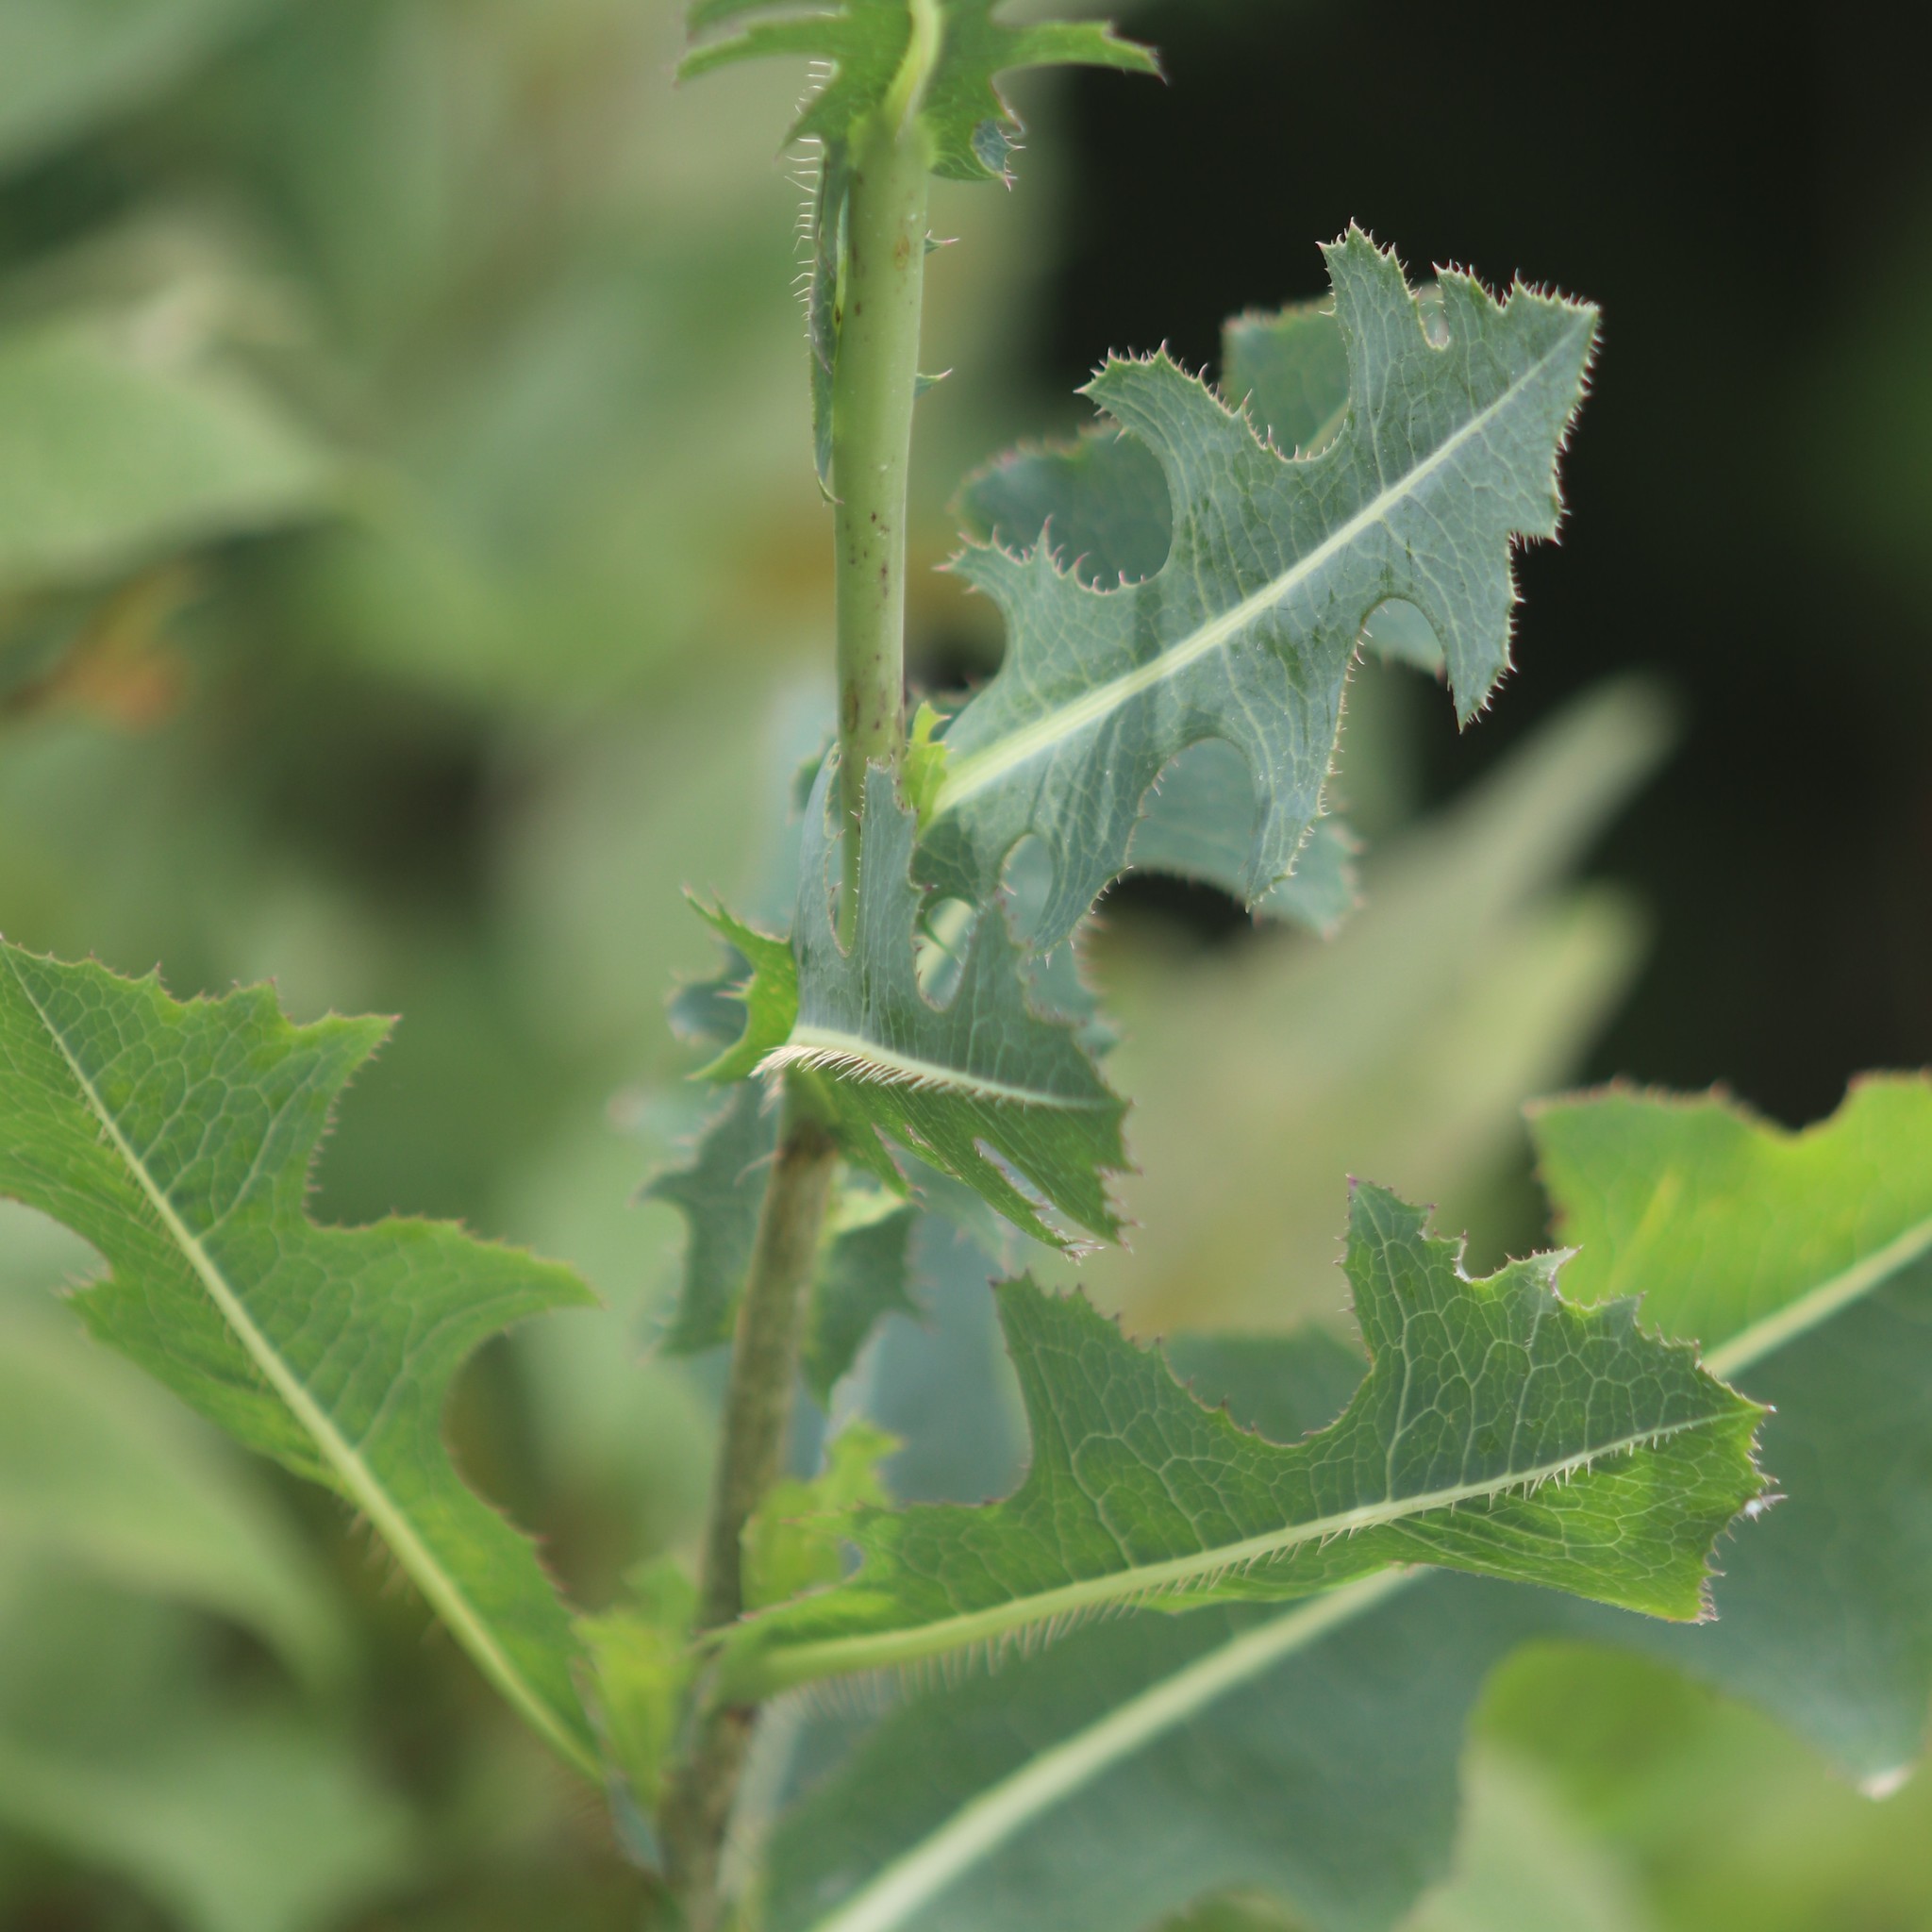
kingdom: Plantae
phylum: Tracheophyta
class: Magnoliopsida
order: Asterales
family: Asteraceae
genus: Lactuca
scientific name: Lactuca serriola
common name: Prickly lettuce
